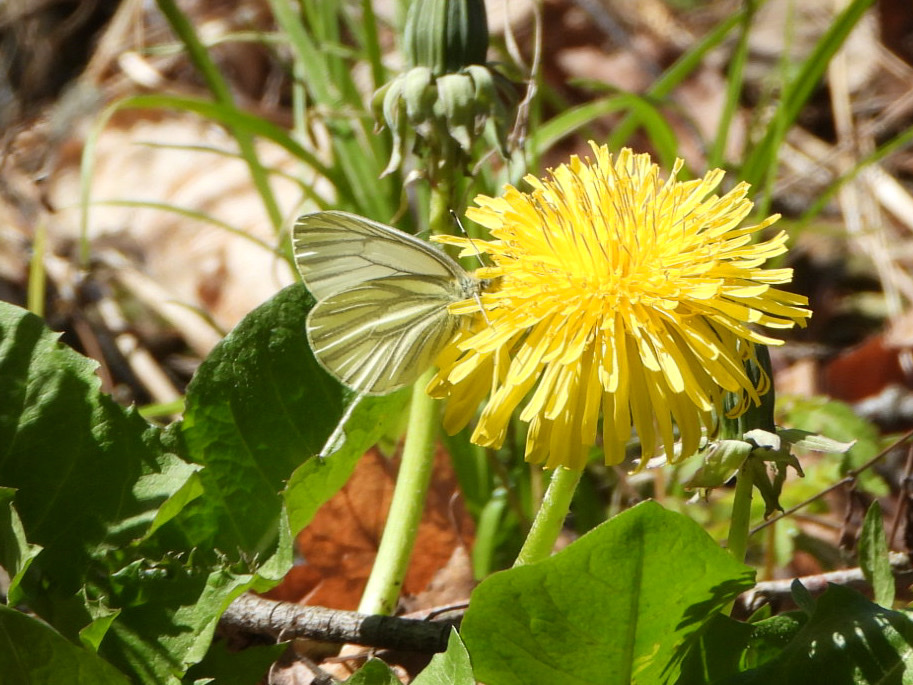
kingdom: Animalia
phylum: Arthropoda
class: Insecta
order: Lepidoptera
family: Pieridae
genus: Pieris
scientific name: Pieris marginalis
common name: Margined white
